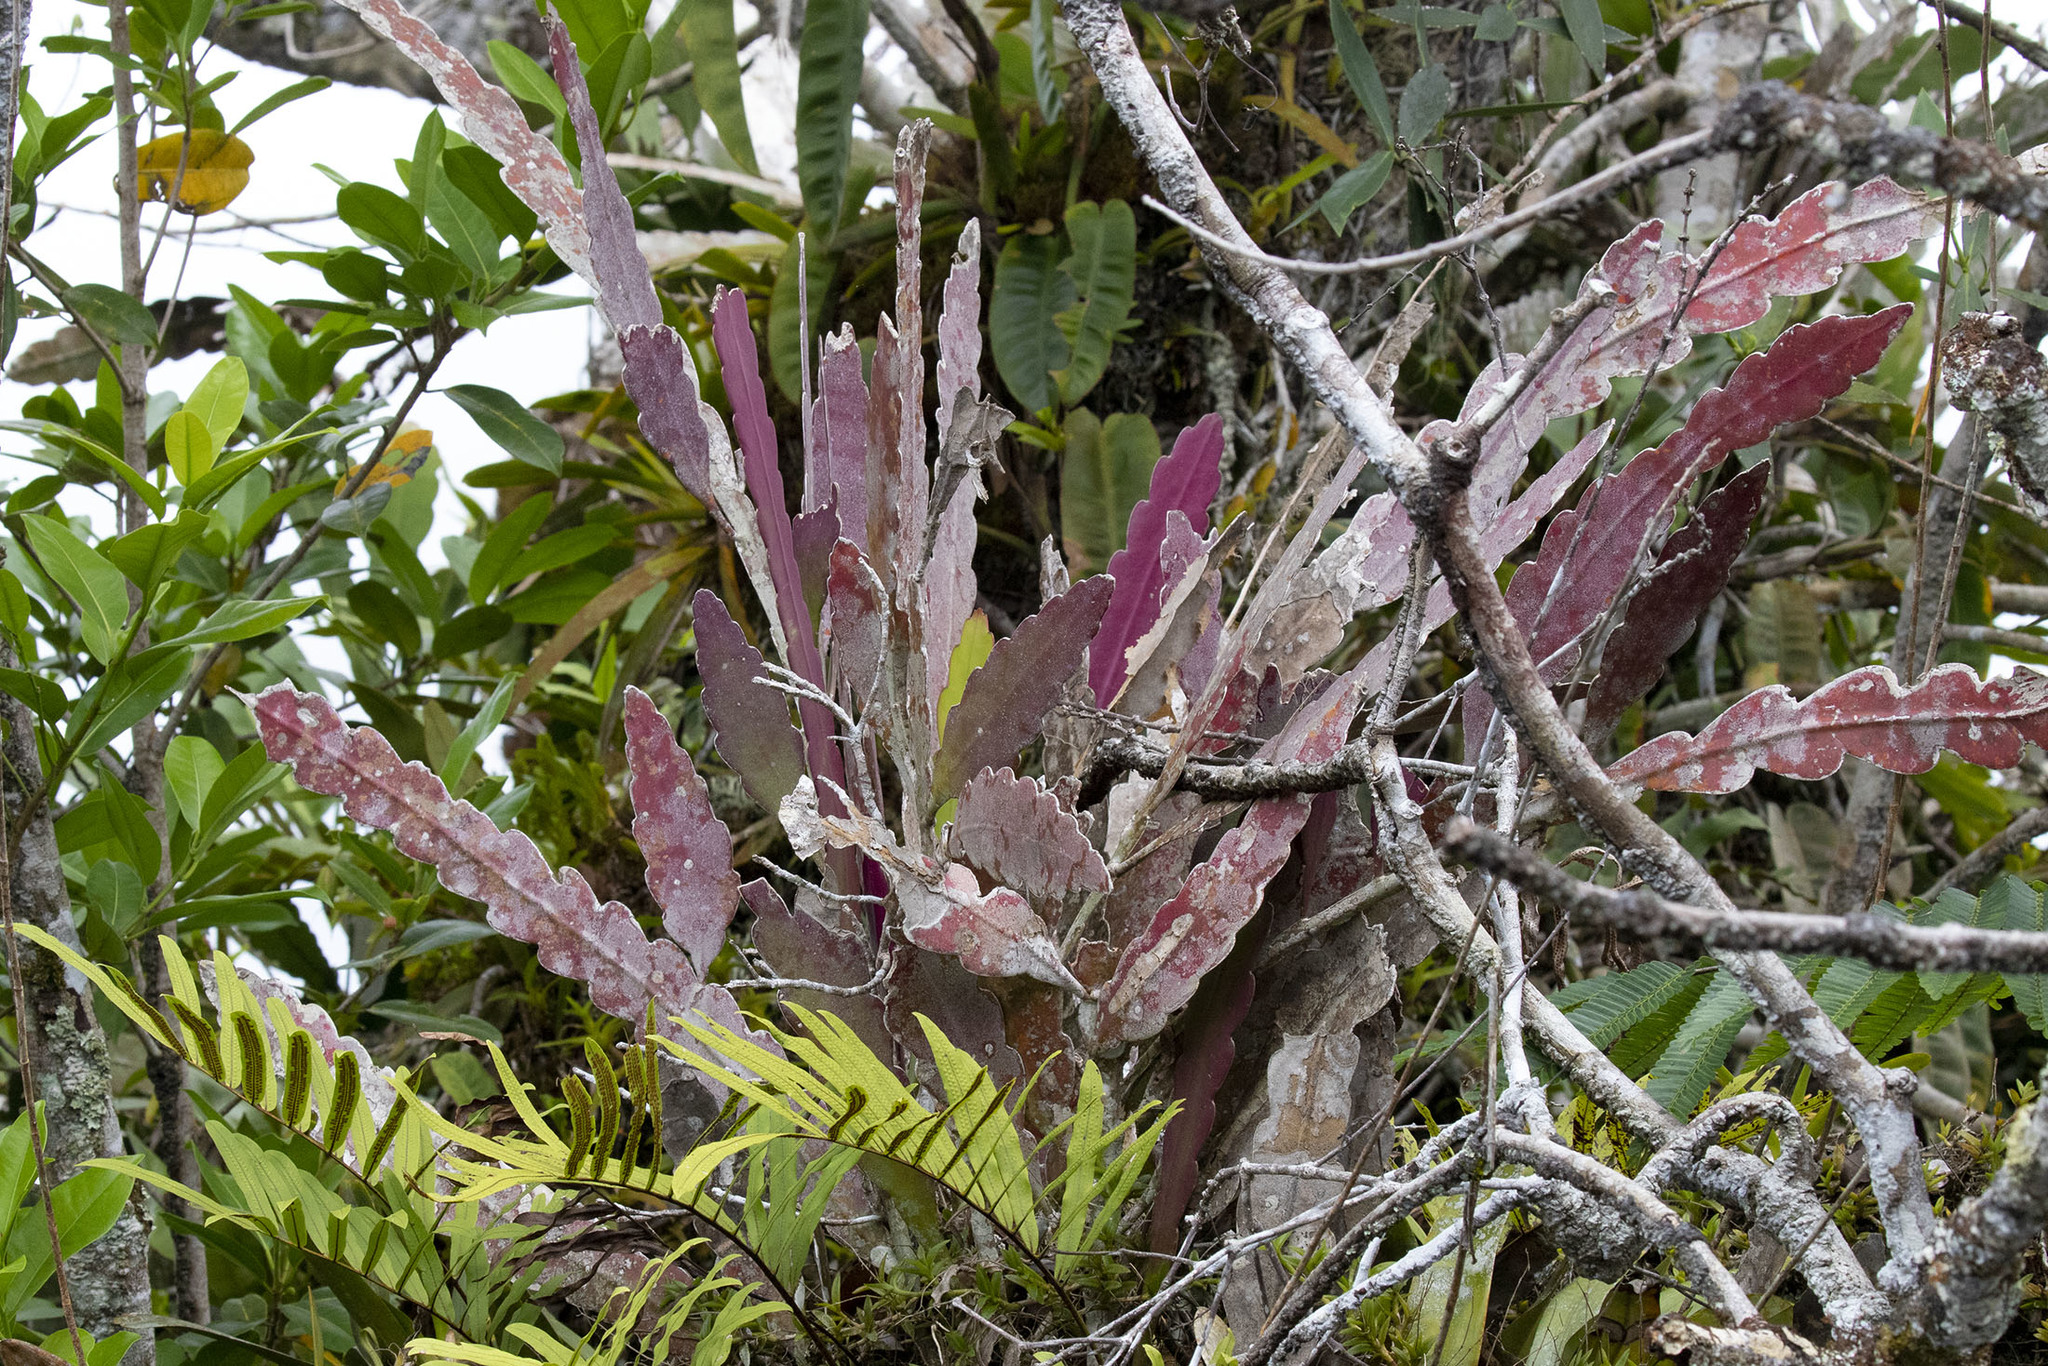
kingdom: Plantae
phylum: Tracheophyta
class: Magnoliopsida
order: Caryophyllales
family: Cactaceae
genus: Epiphyllum
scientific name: Epiphyllum phyllanthus
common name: Climbing cactus
